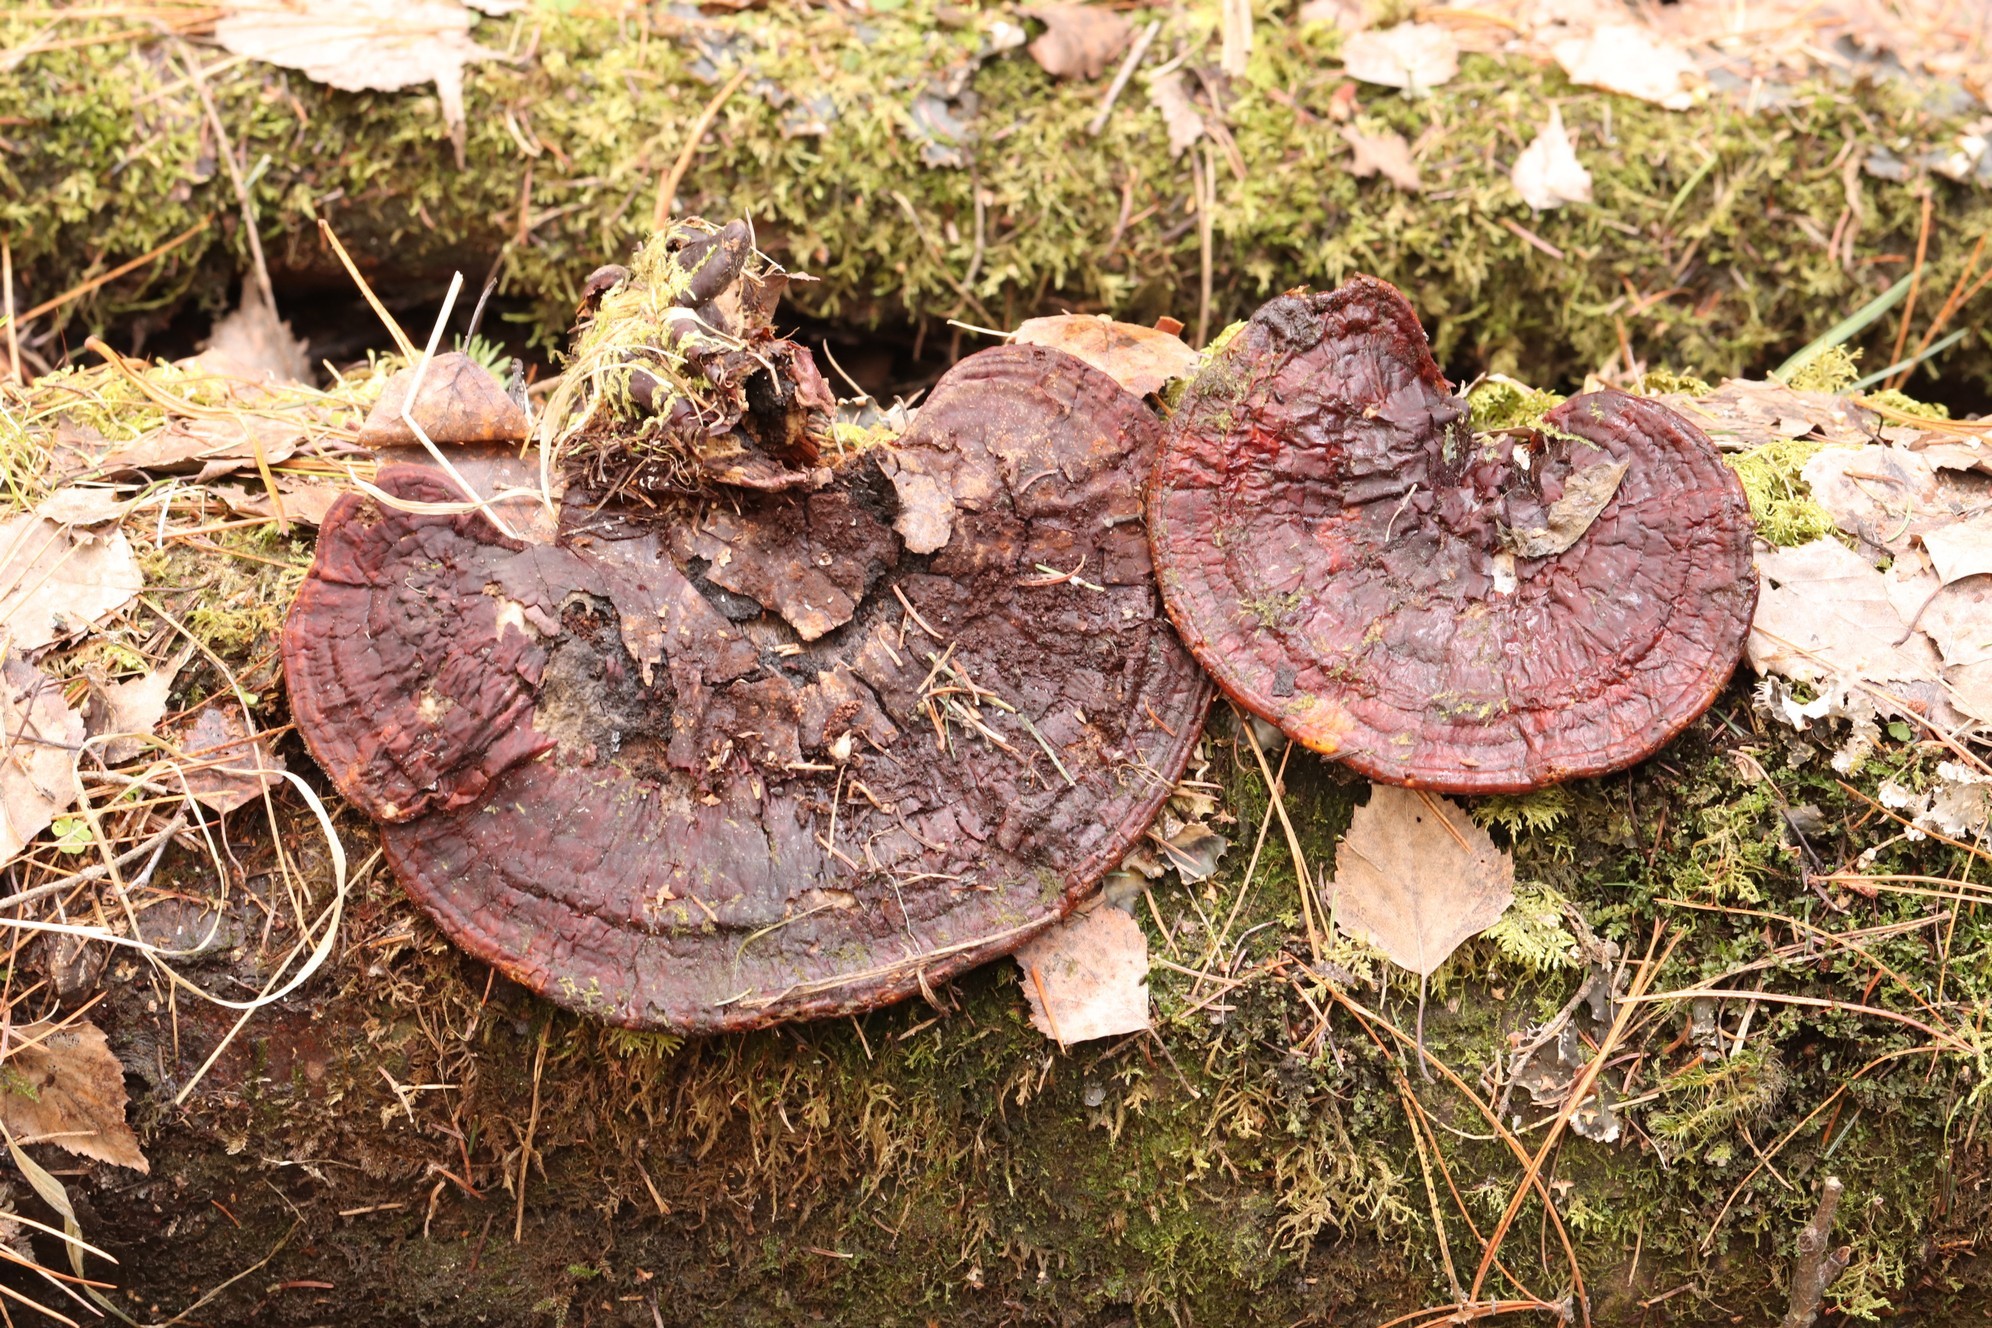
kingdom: Fungi
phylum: Basidiomycota
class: Agaricomycetes
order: Polyporales
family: Polyporaceae
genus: Ganoderma
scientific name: Ganoderma lucidum
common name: Lacquered bracket
